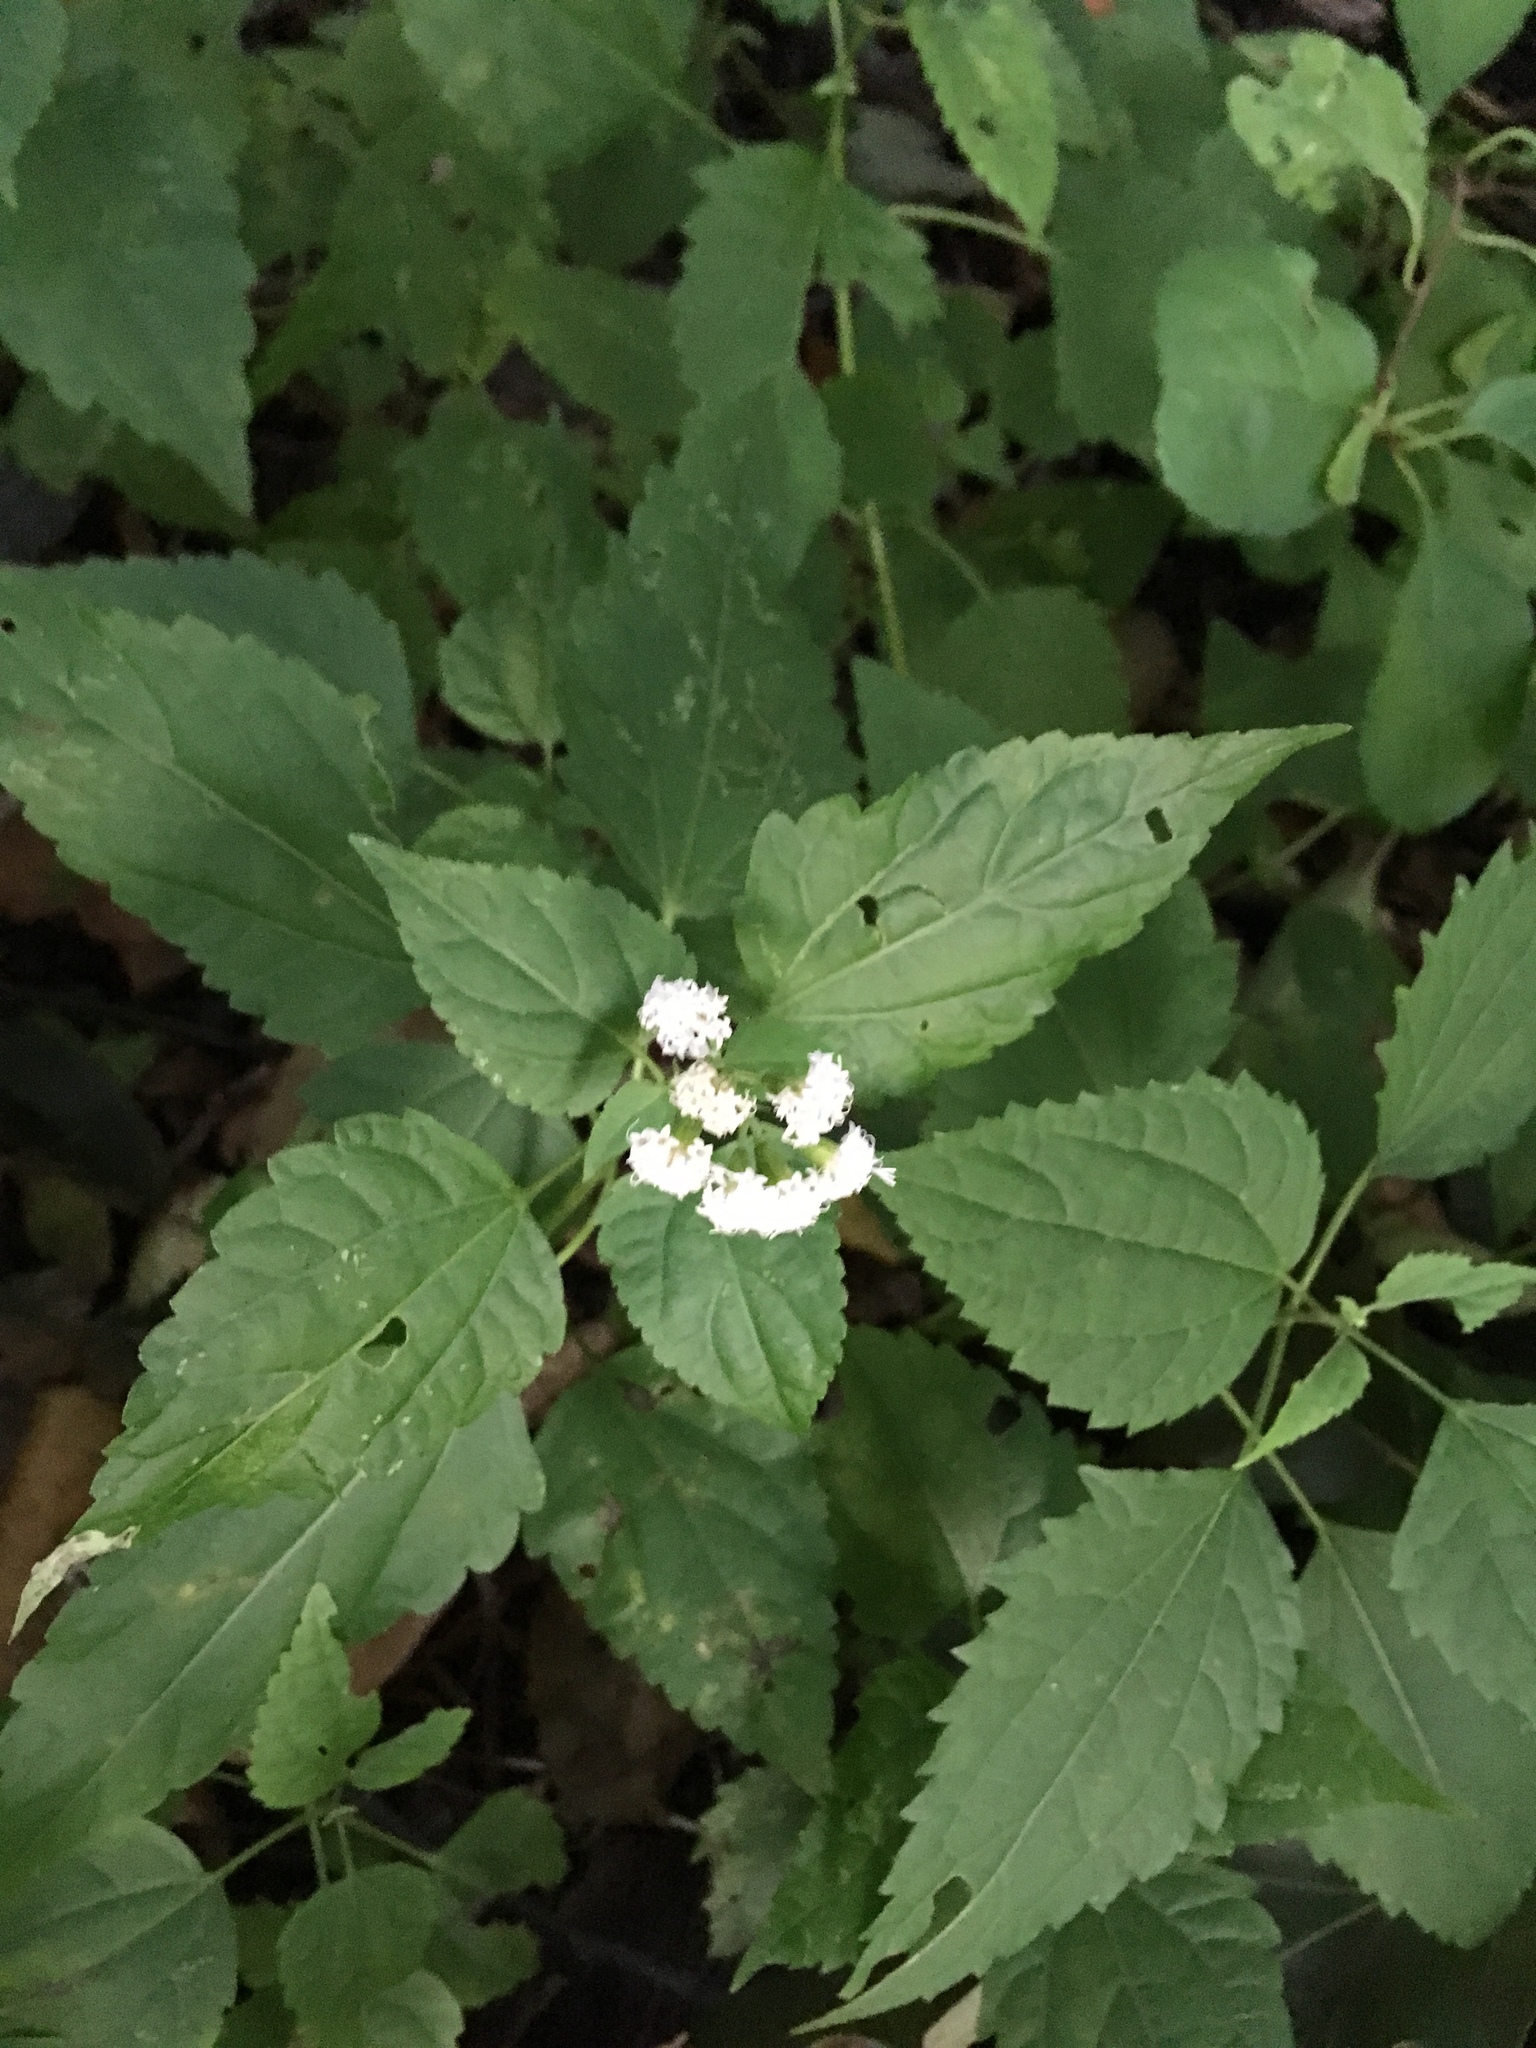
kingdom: Plantae
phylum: Tracheophyta
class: Magnoliopsida
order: Asterales
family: Asteraceae
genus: Ageratina
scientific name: Ageratina altissima
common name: White snakeroot
